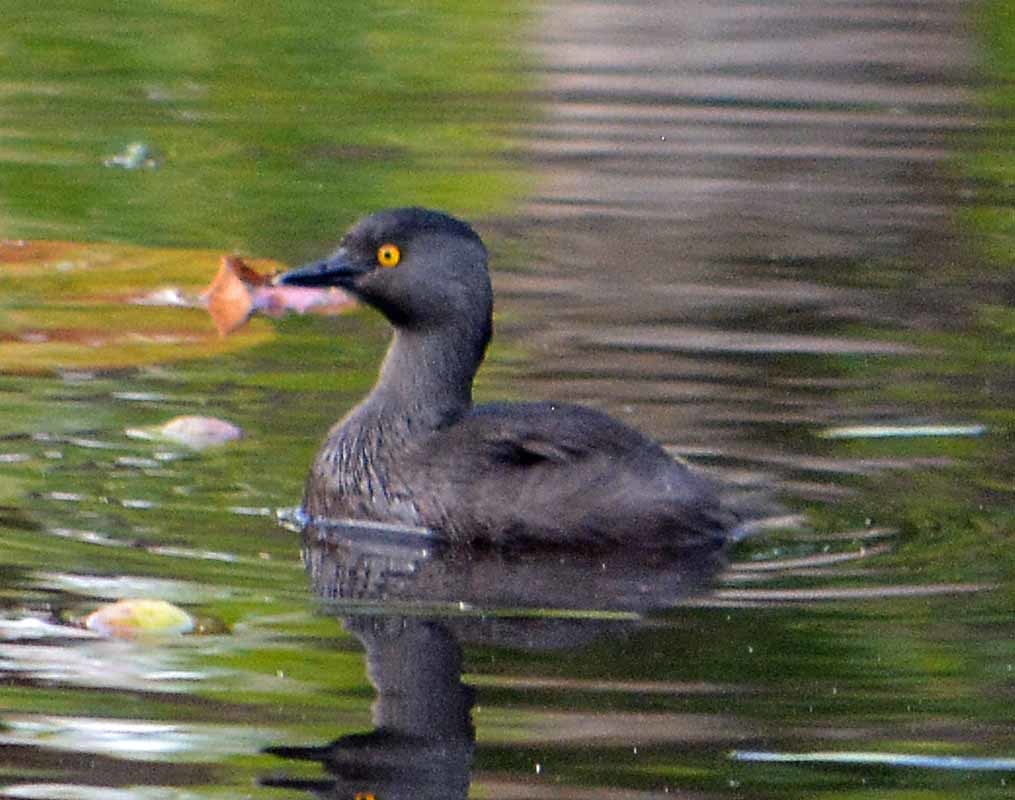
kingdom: Animalia
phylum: Chordata
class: Aves
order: Podicipediformes
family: Podicipedidae
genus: Tachybaptus
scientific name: Tachybaptus dominicus
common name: Least grebe
